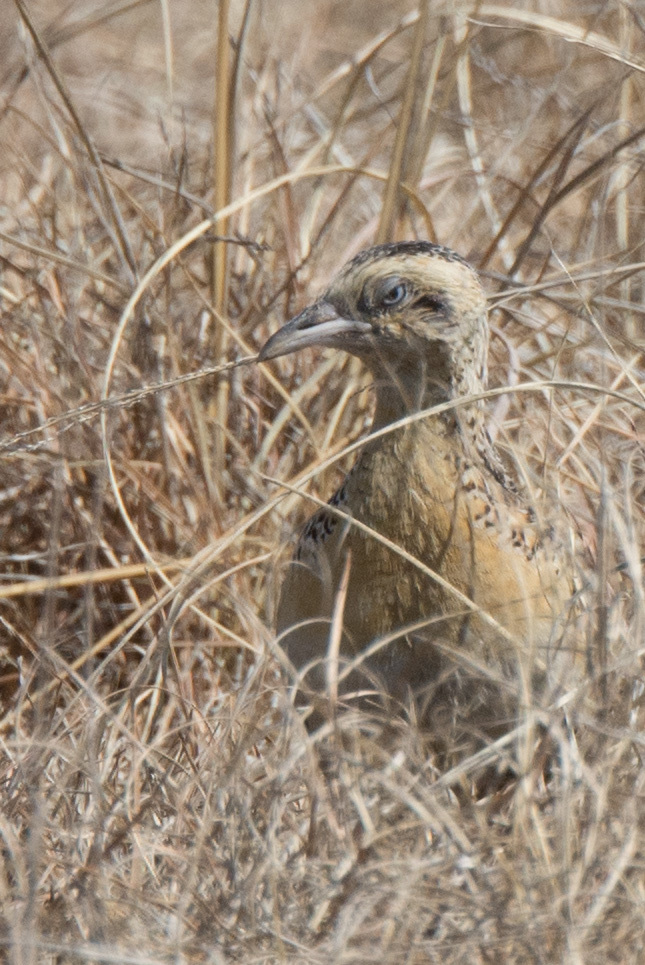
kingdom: Animalia
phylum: Chordata
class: Aves
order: Charadriiformes
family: Turnicidae
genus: Turnix
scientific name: Turnix sylvaticus
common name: Common buttonquail
